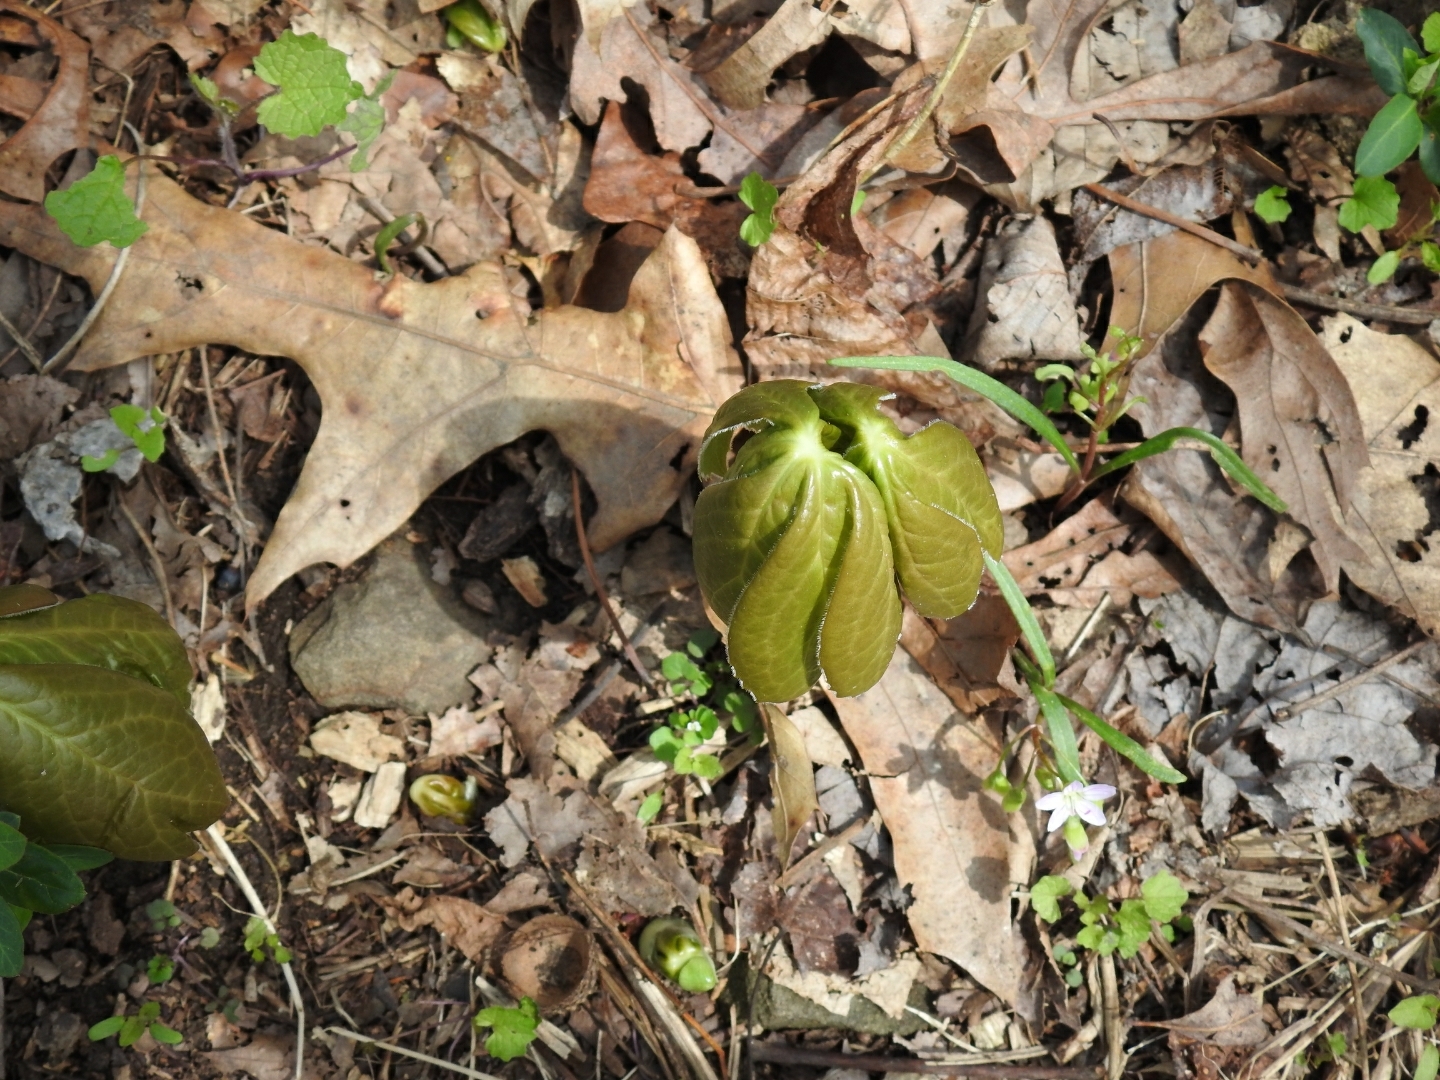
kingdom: Plantae
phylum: Tracheophyta
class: Magnoliopsida
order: Ranunculales
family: Berberidaceae
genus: Podophyllum
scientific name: Podophyllum peltatum
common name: Wild mandrake
